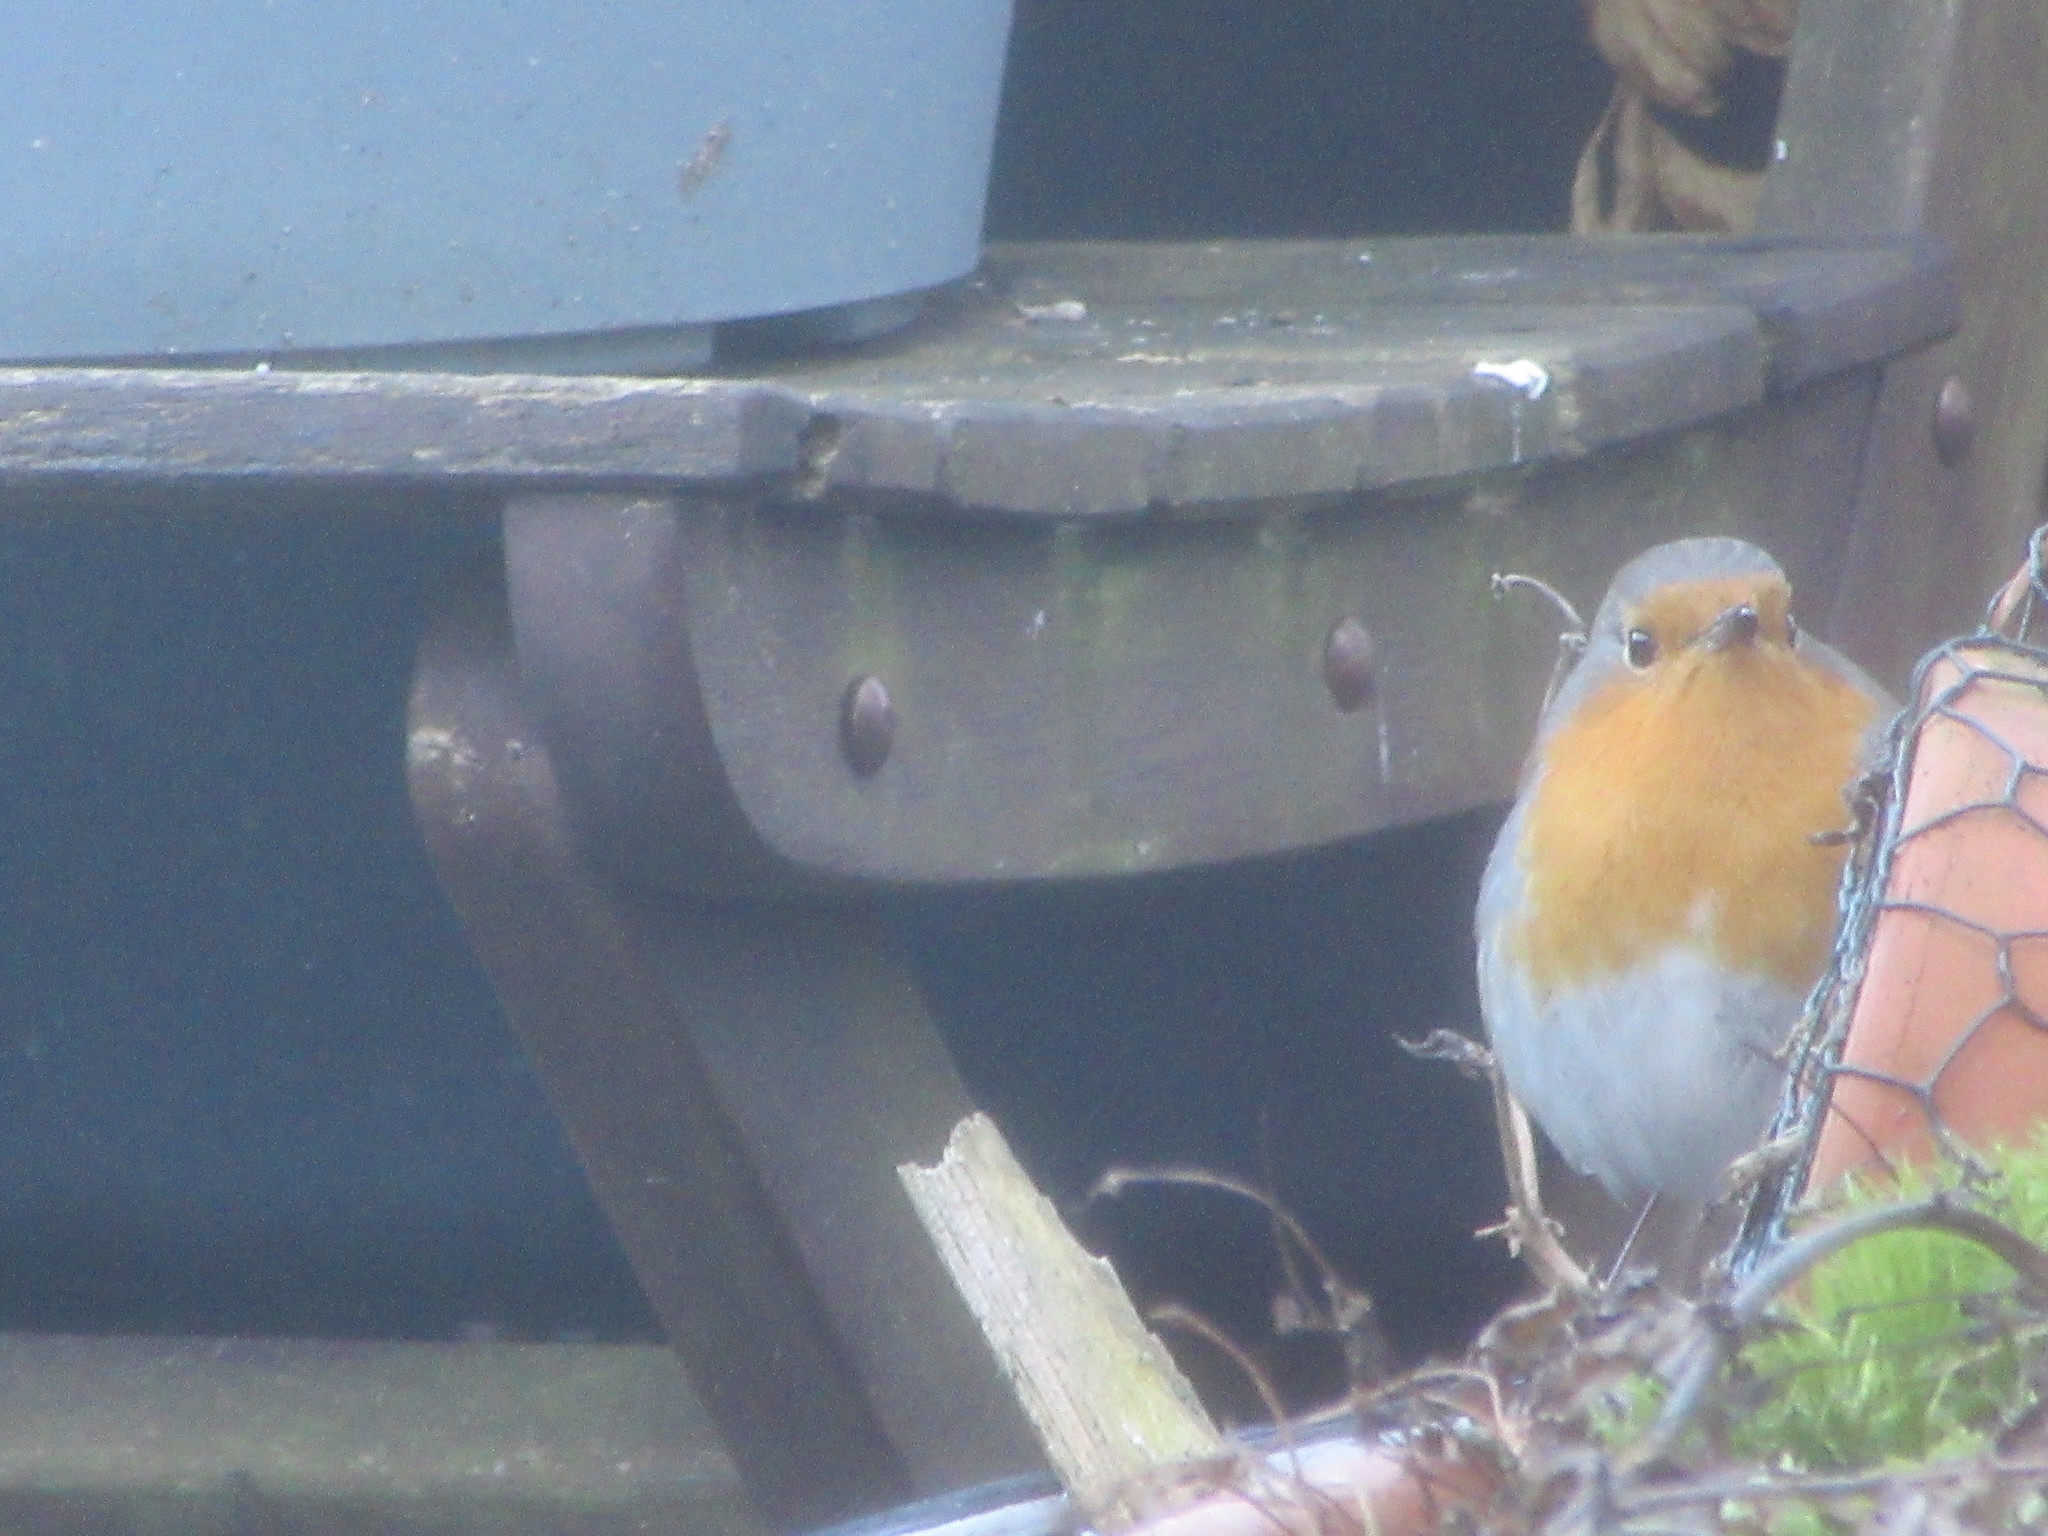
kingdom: Animalia
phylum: Chordata
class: Aves
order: Passeriformes
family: Muscicapidae
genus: Erithacus
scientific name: Erithacus rubecula
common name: European robin
